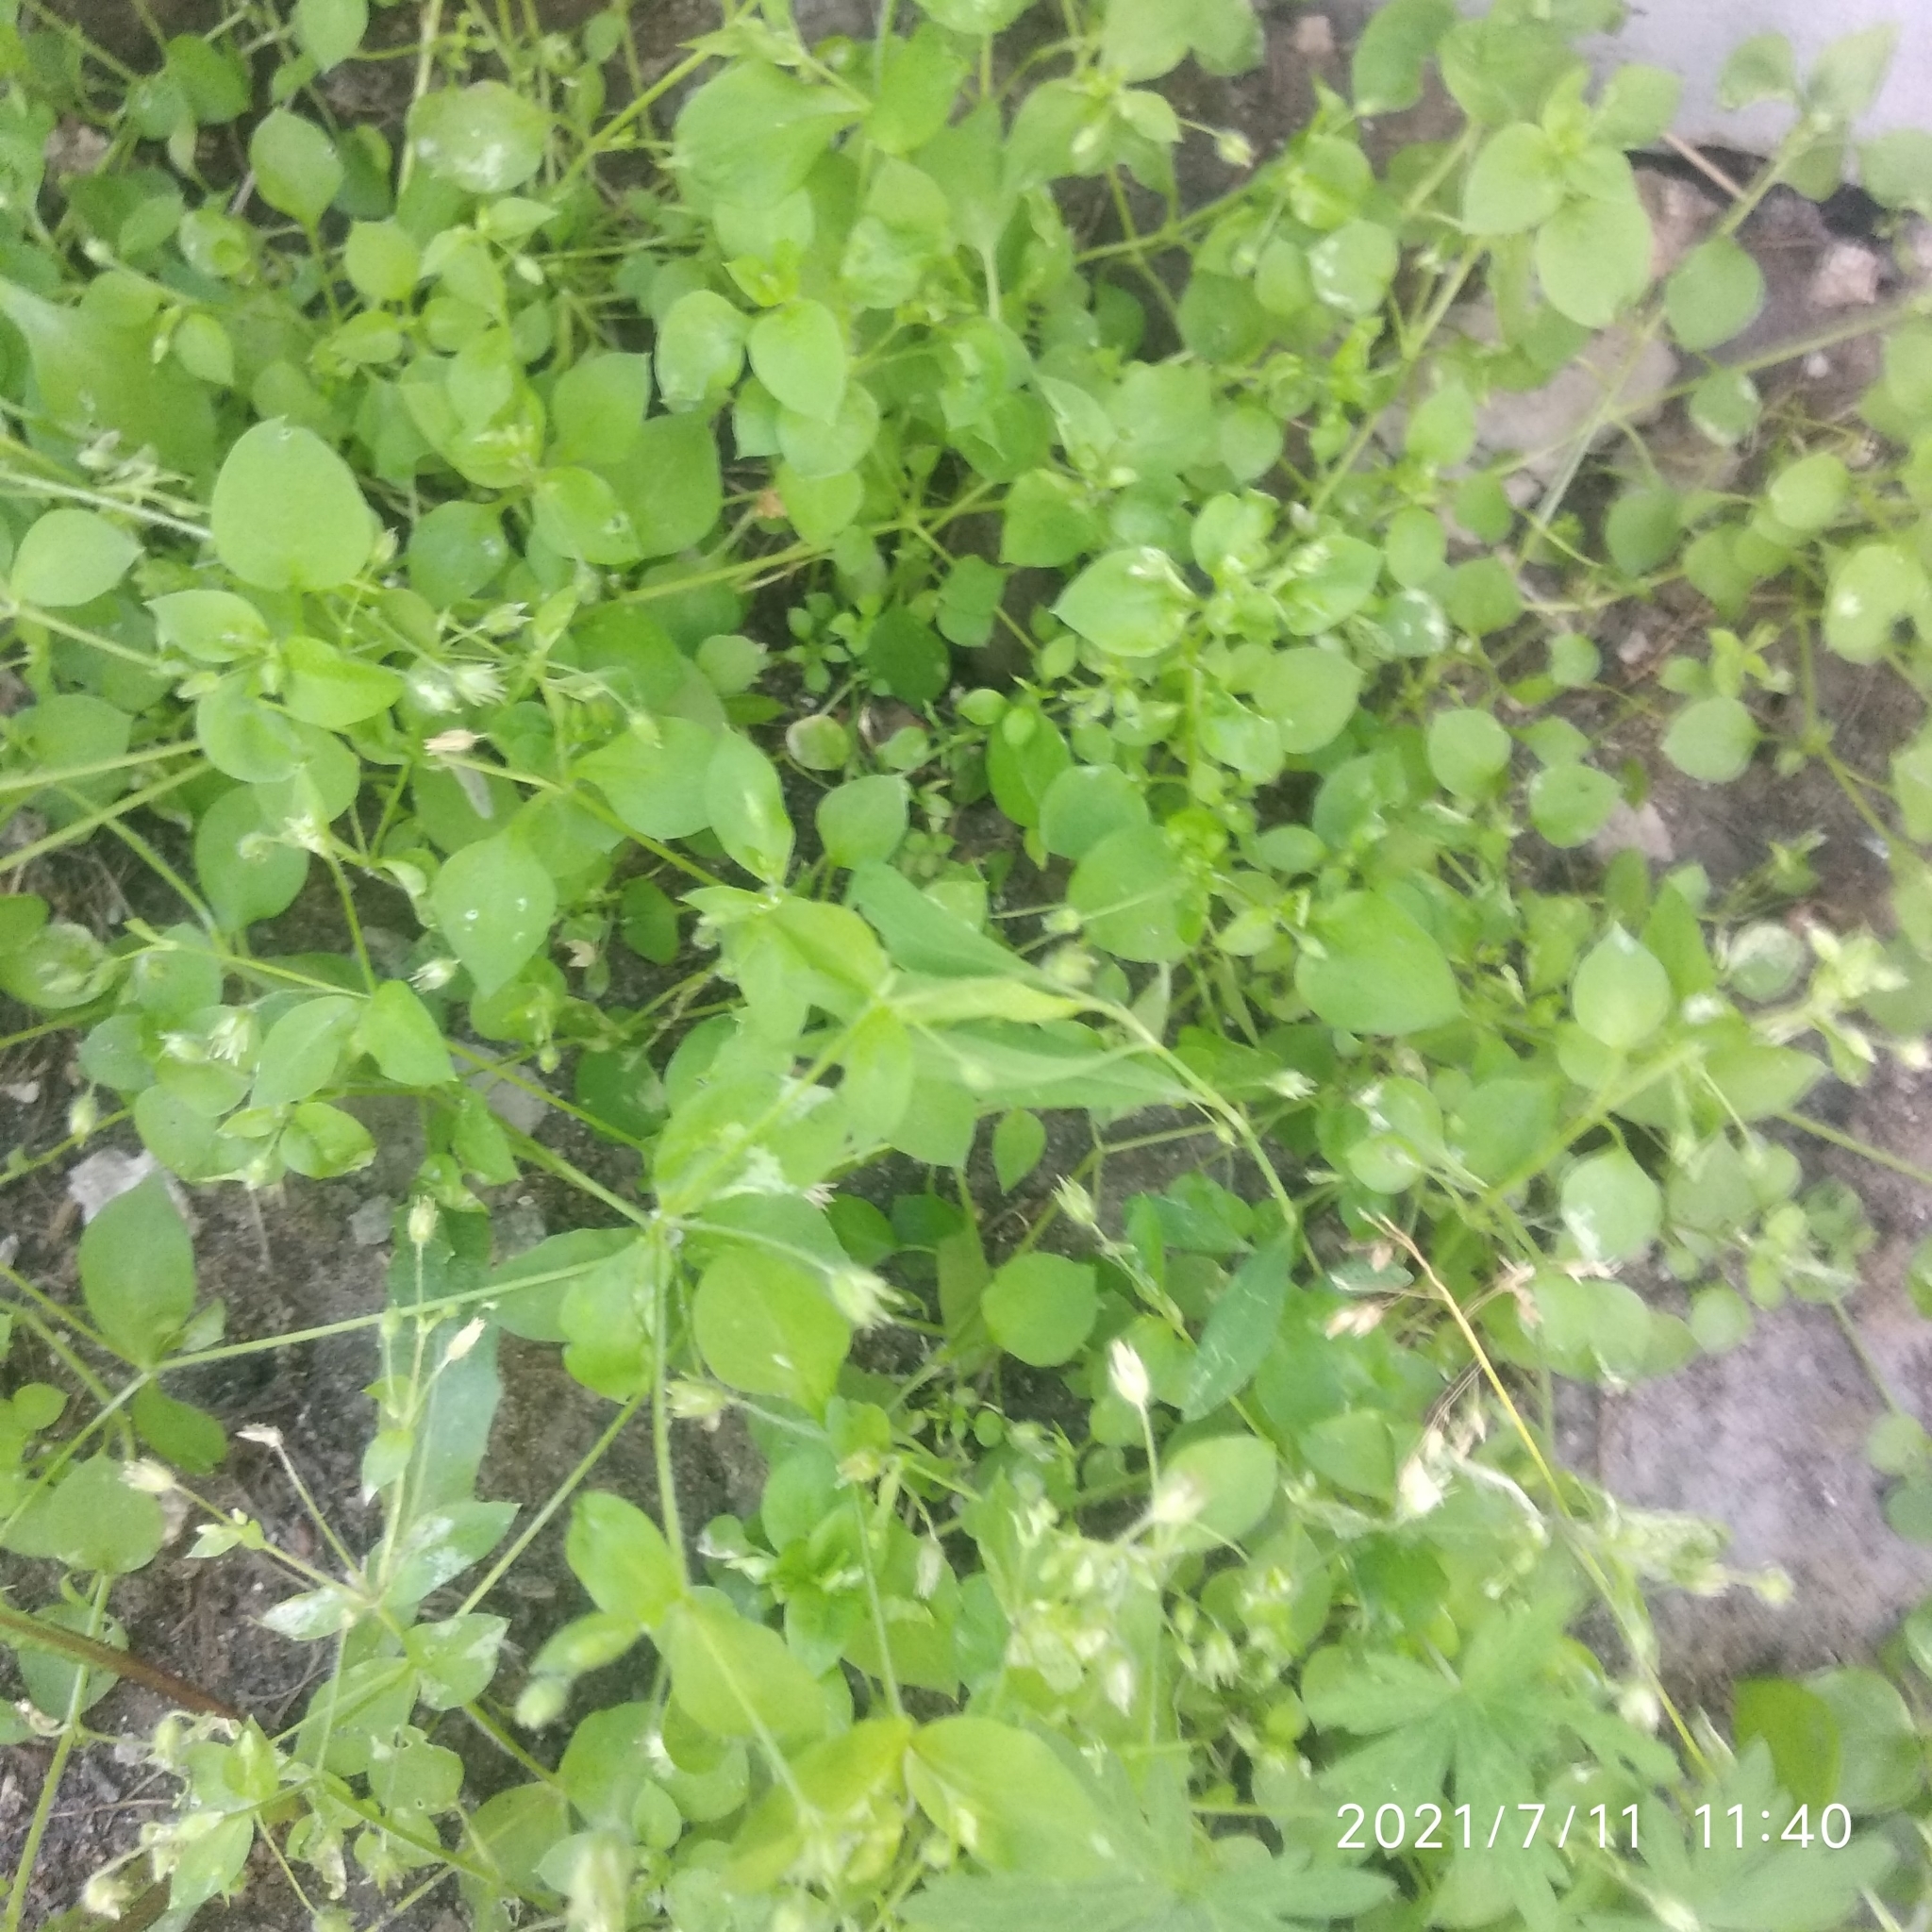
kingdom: Plantae
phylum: Tracheophyta
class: Magnoliopsida
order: Caryophyllales
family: Caryophyllaceae
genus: Stellaria
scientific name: Stellaria media
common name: Common chickweed
